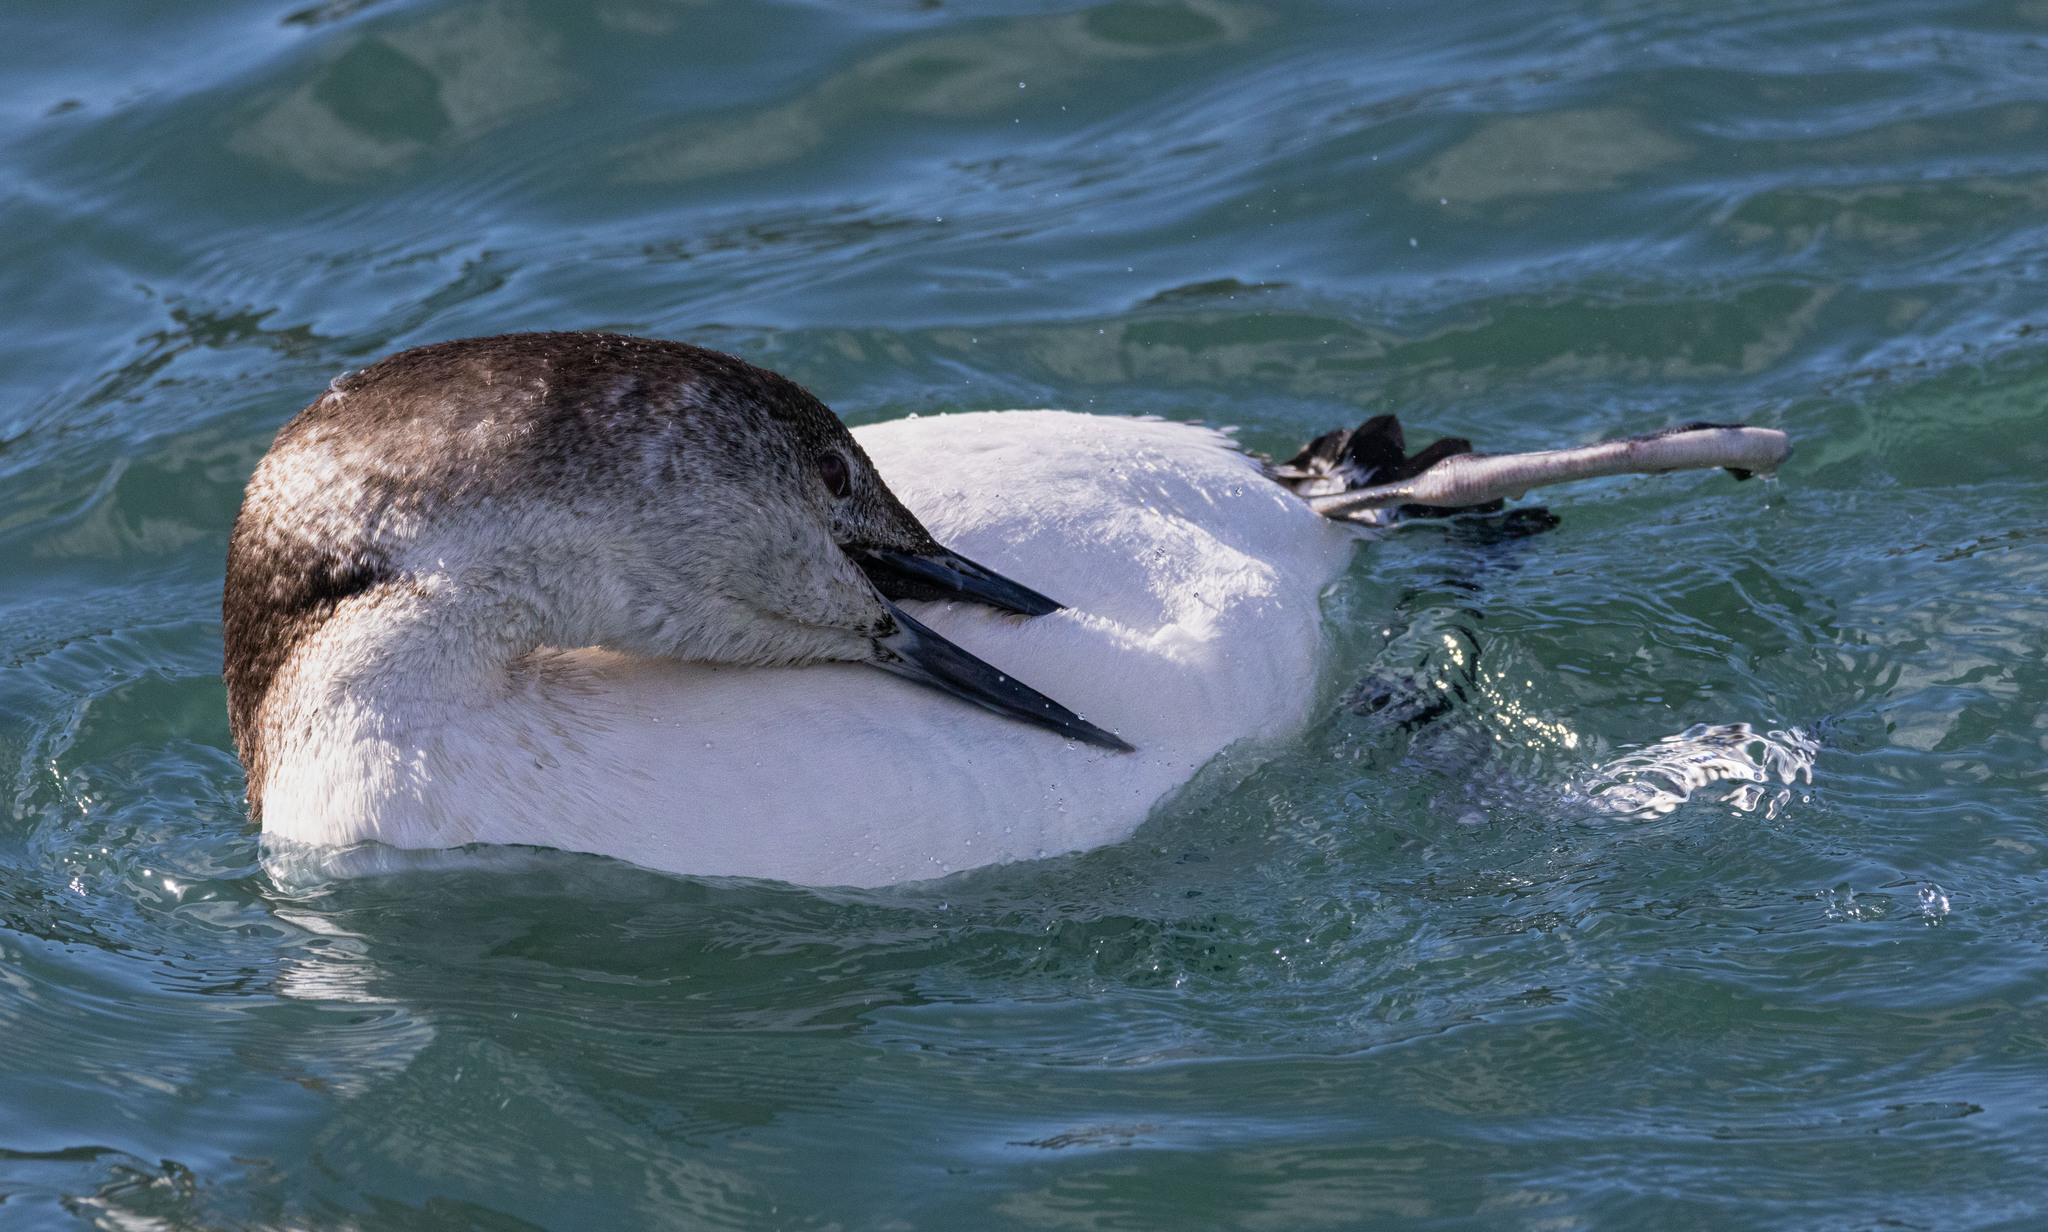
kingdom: Animalia
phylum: Chordata
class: Aves
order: Gaviiformes
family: Gaviidae
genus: Gavia
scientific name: Gavia immer
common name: Common loon
